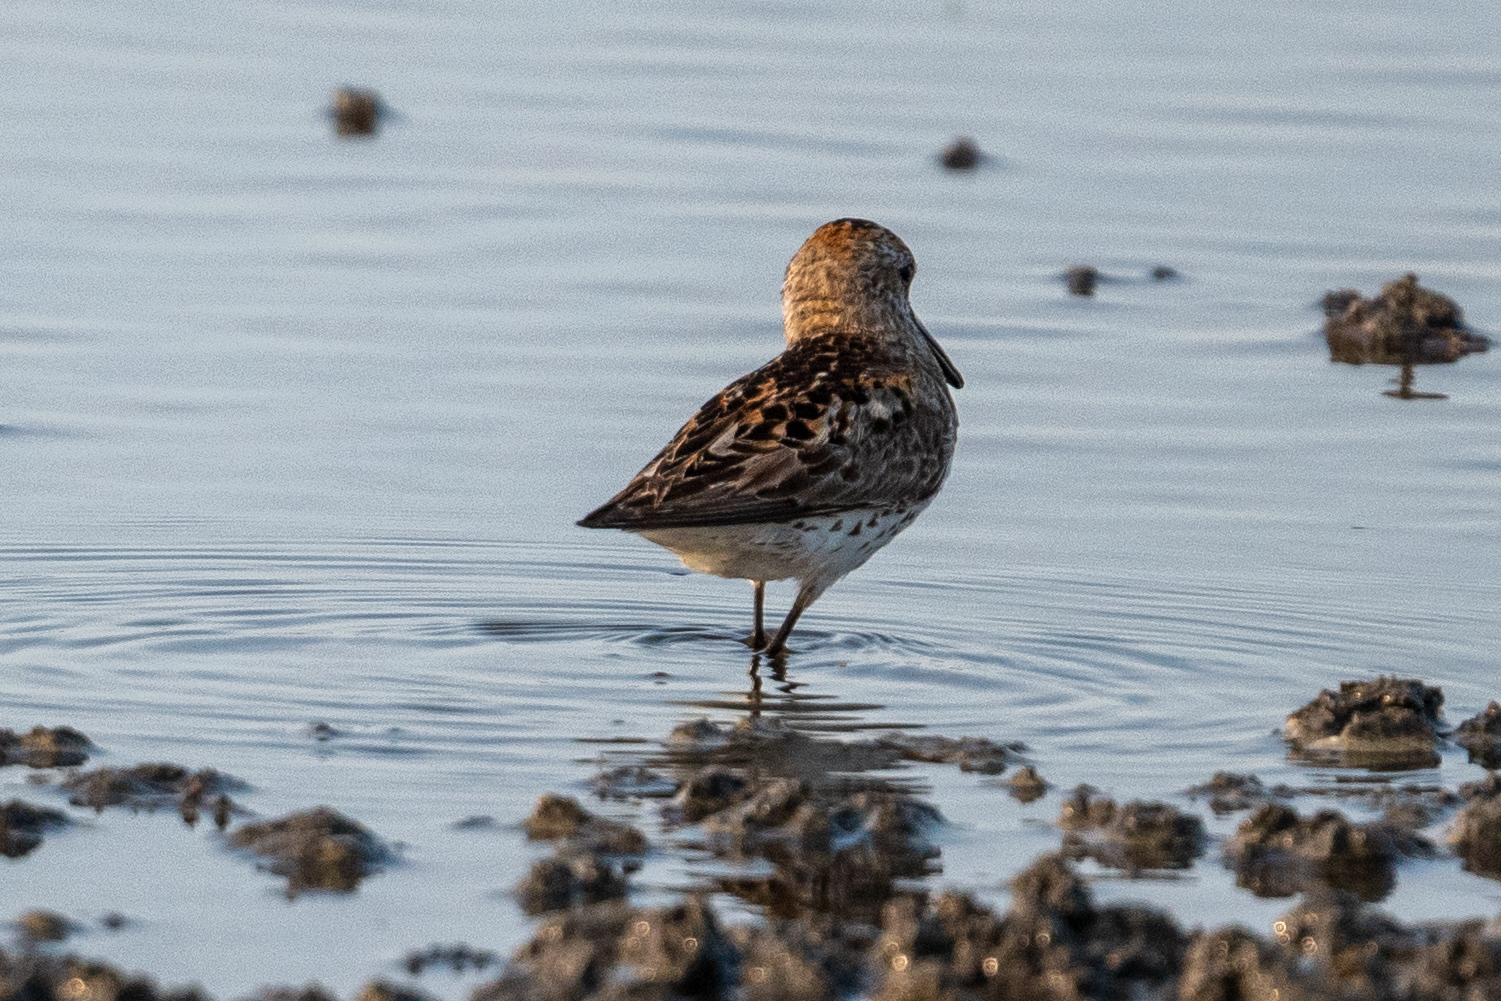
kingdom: Animalia
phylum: Chordata
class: Aves
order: Charadriiformes
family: Scolopacidae
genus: Calidris
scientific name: Calidris mauri
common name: Western sandpiper
